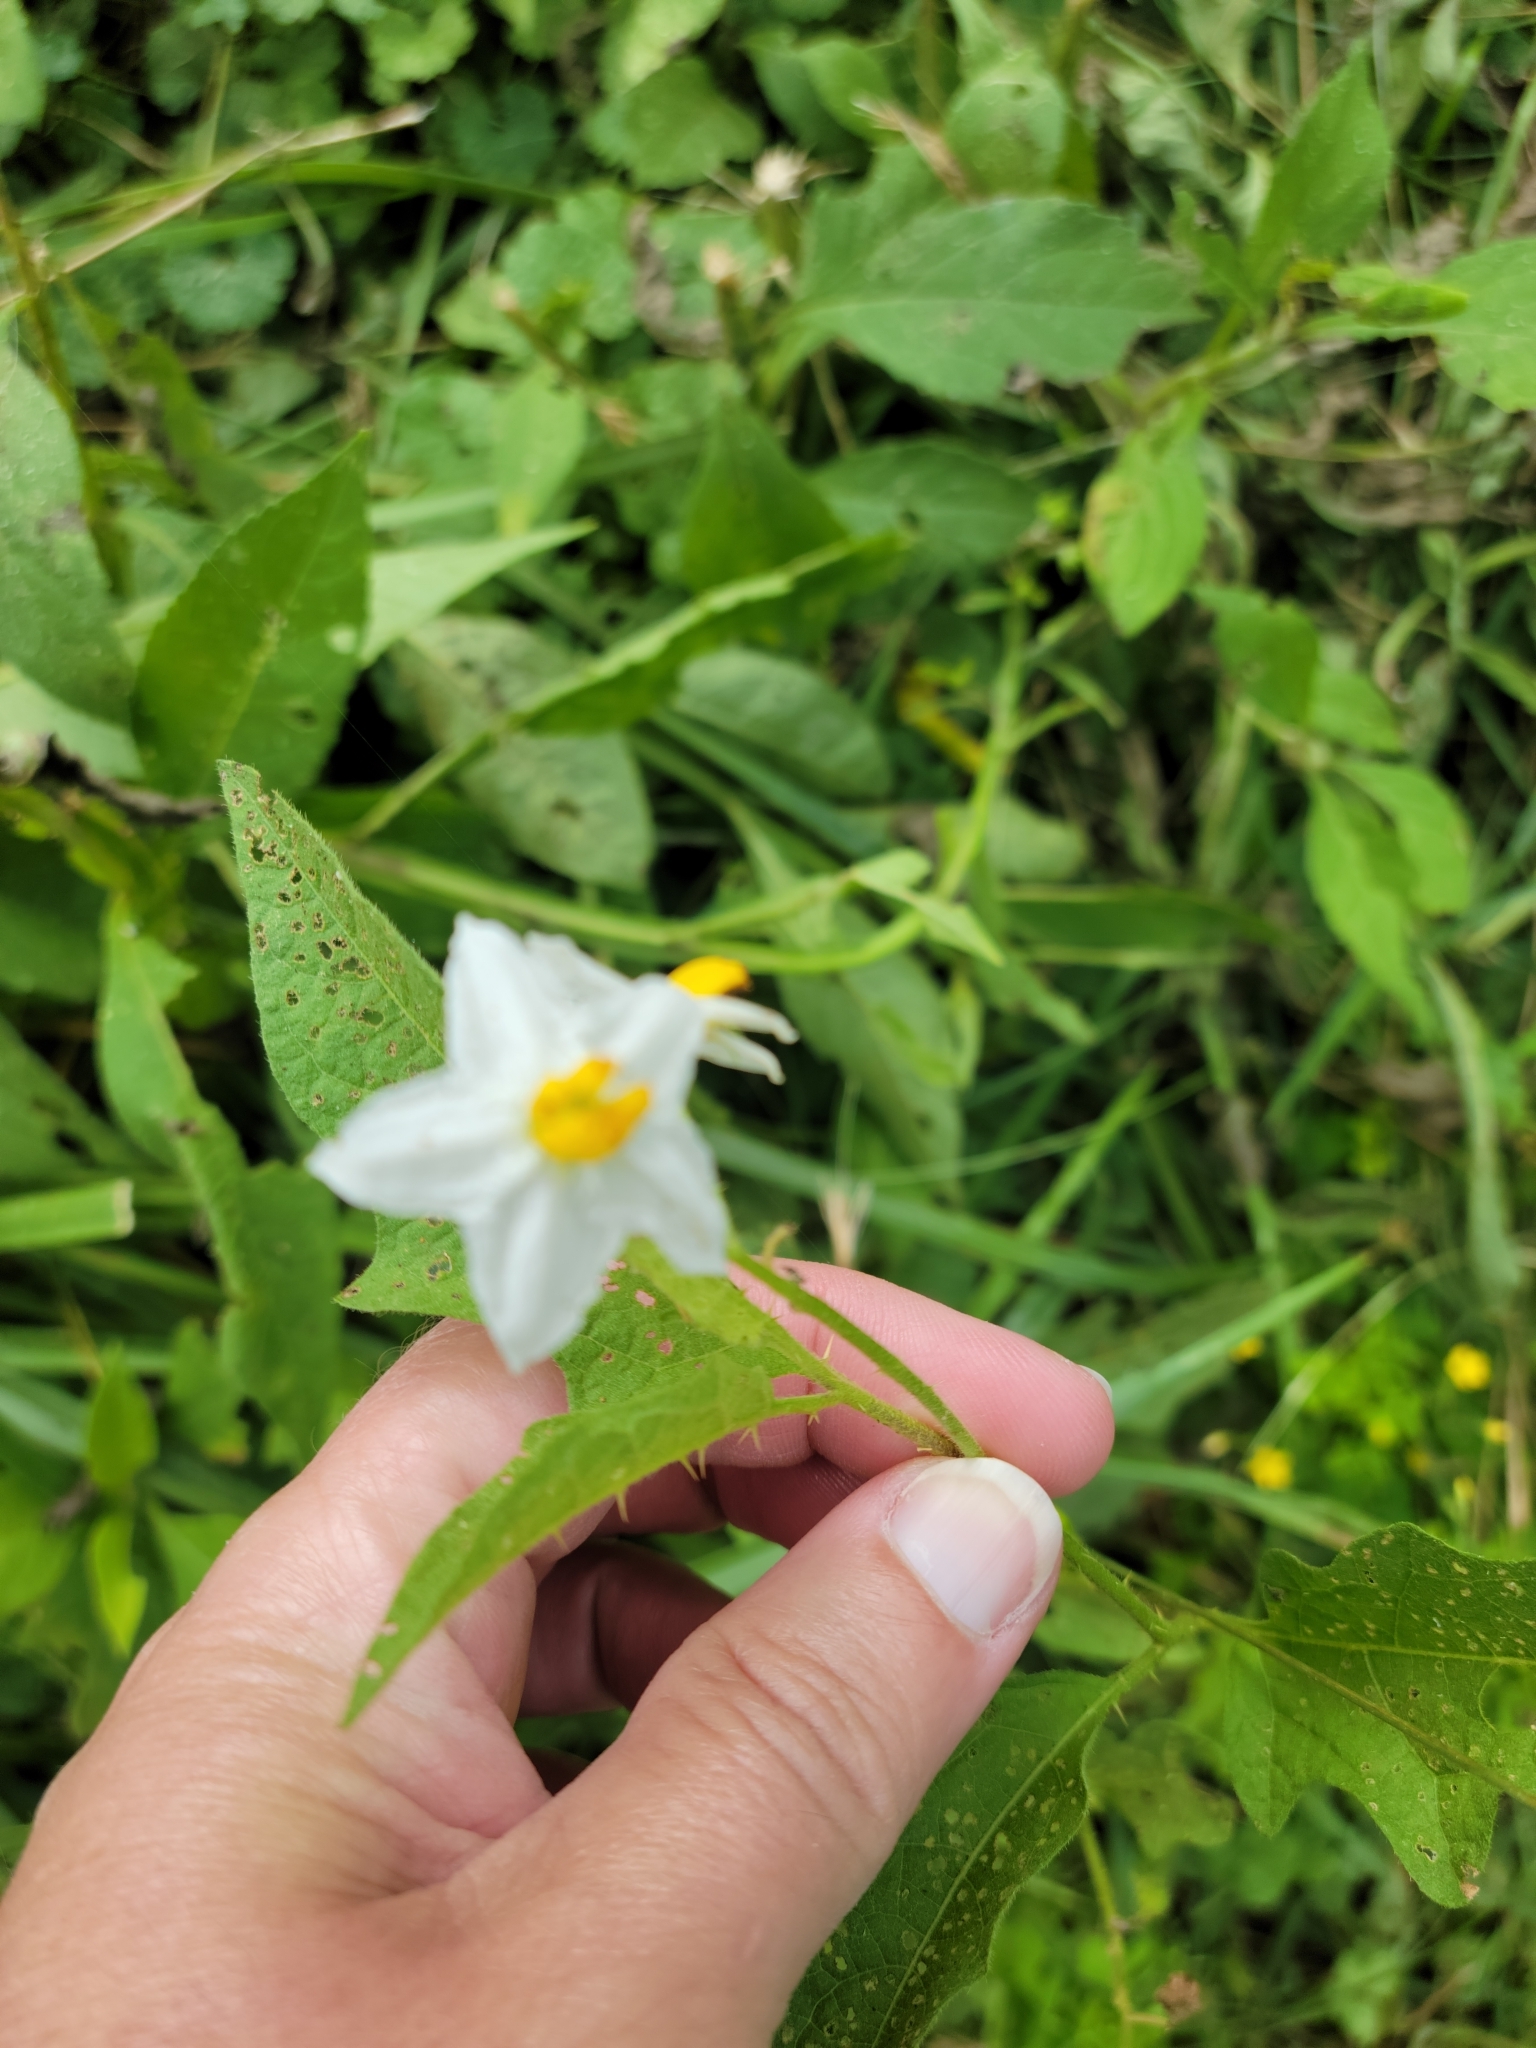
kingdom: Plantae
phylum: Tracheophyta
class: Magnoliopsida
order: Solanales
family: Solanaceae
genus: Solanum
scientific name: Solanum carolinense
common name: Horse-nettle
